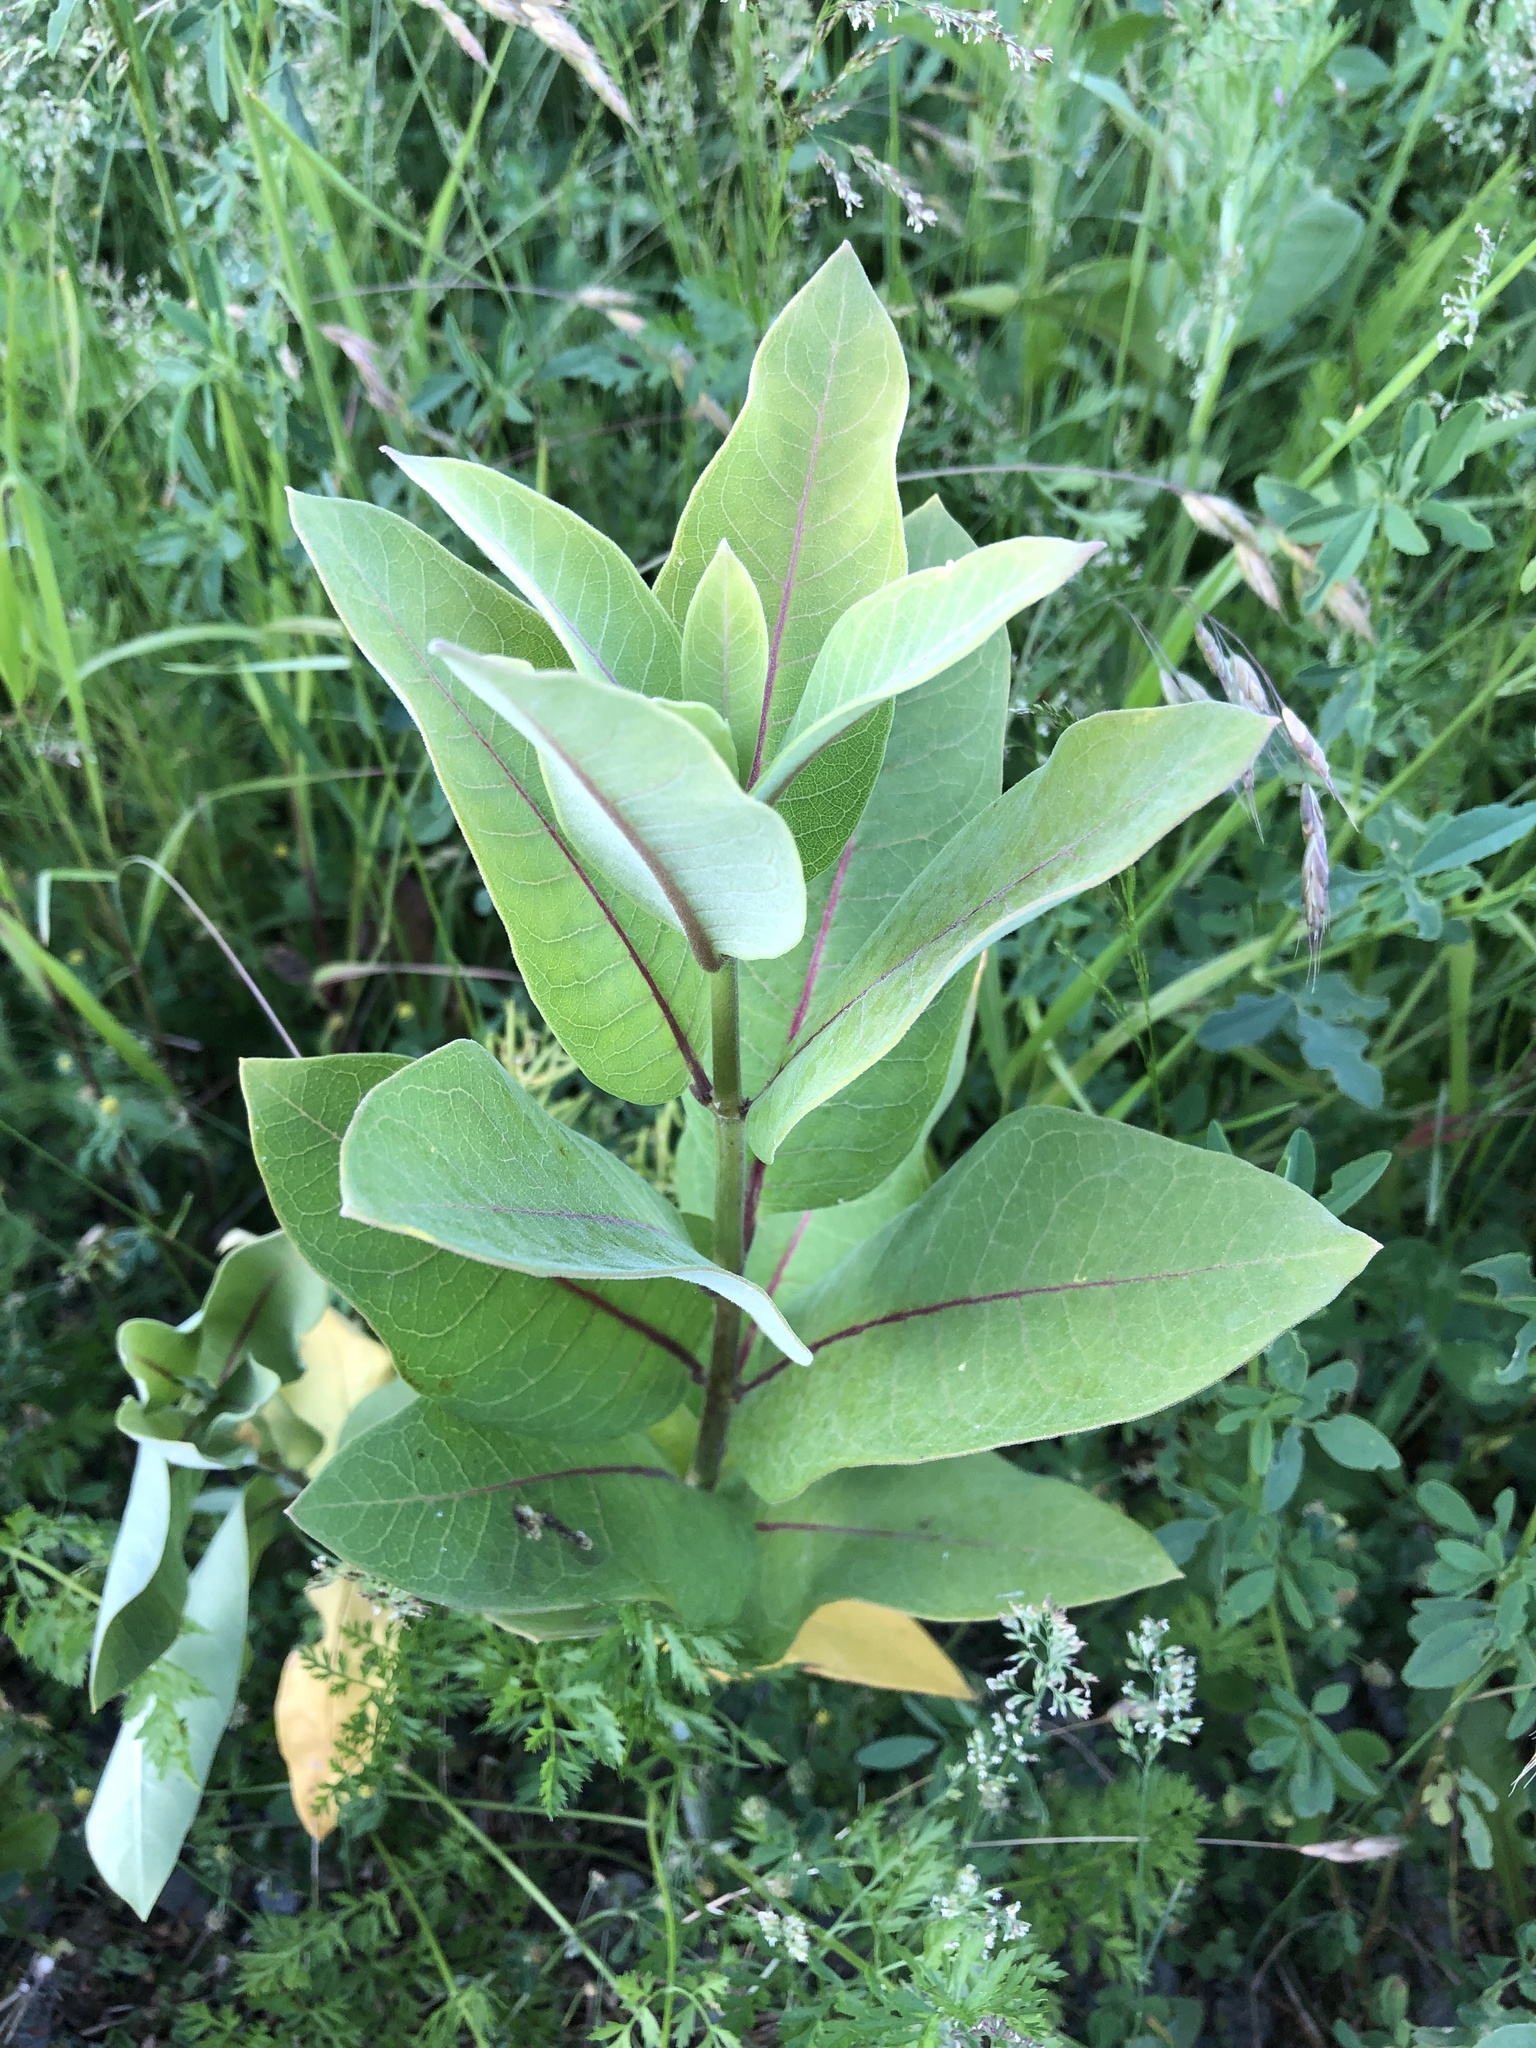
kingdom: Plantae
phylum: Tracheophyta
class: Magnoliopsida
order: Gentianales
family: Apocynaceae
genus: Asclepias
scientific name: Asclepias syriaca
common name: Common milkweed
